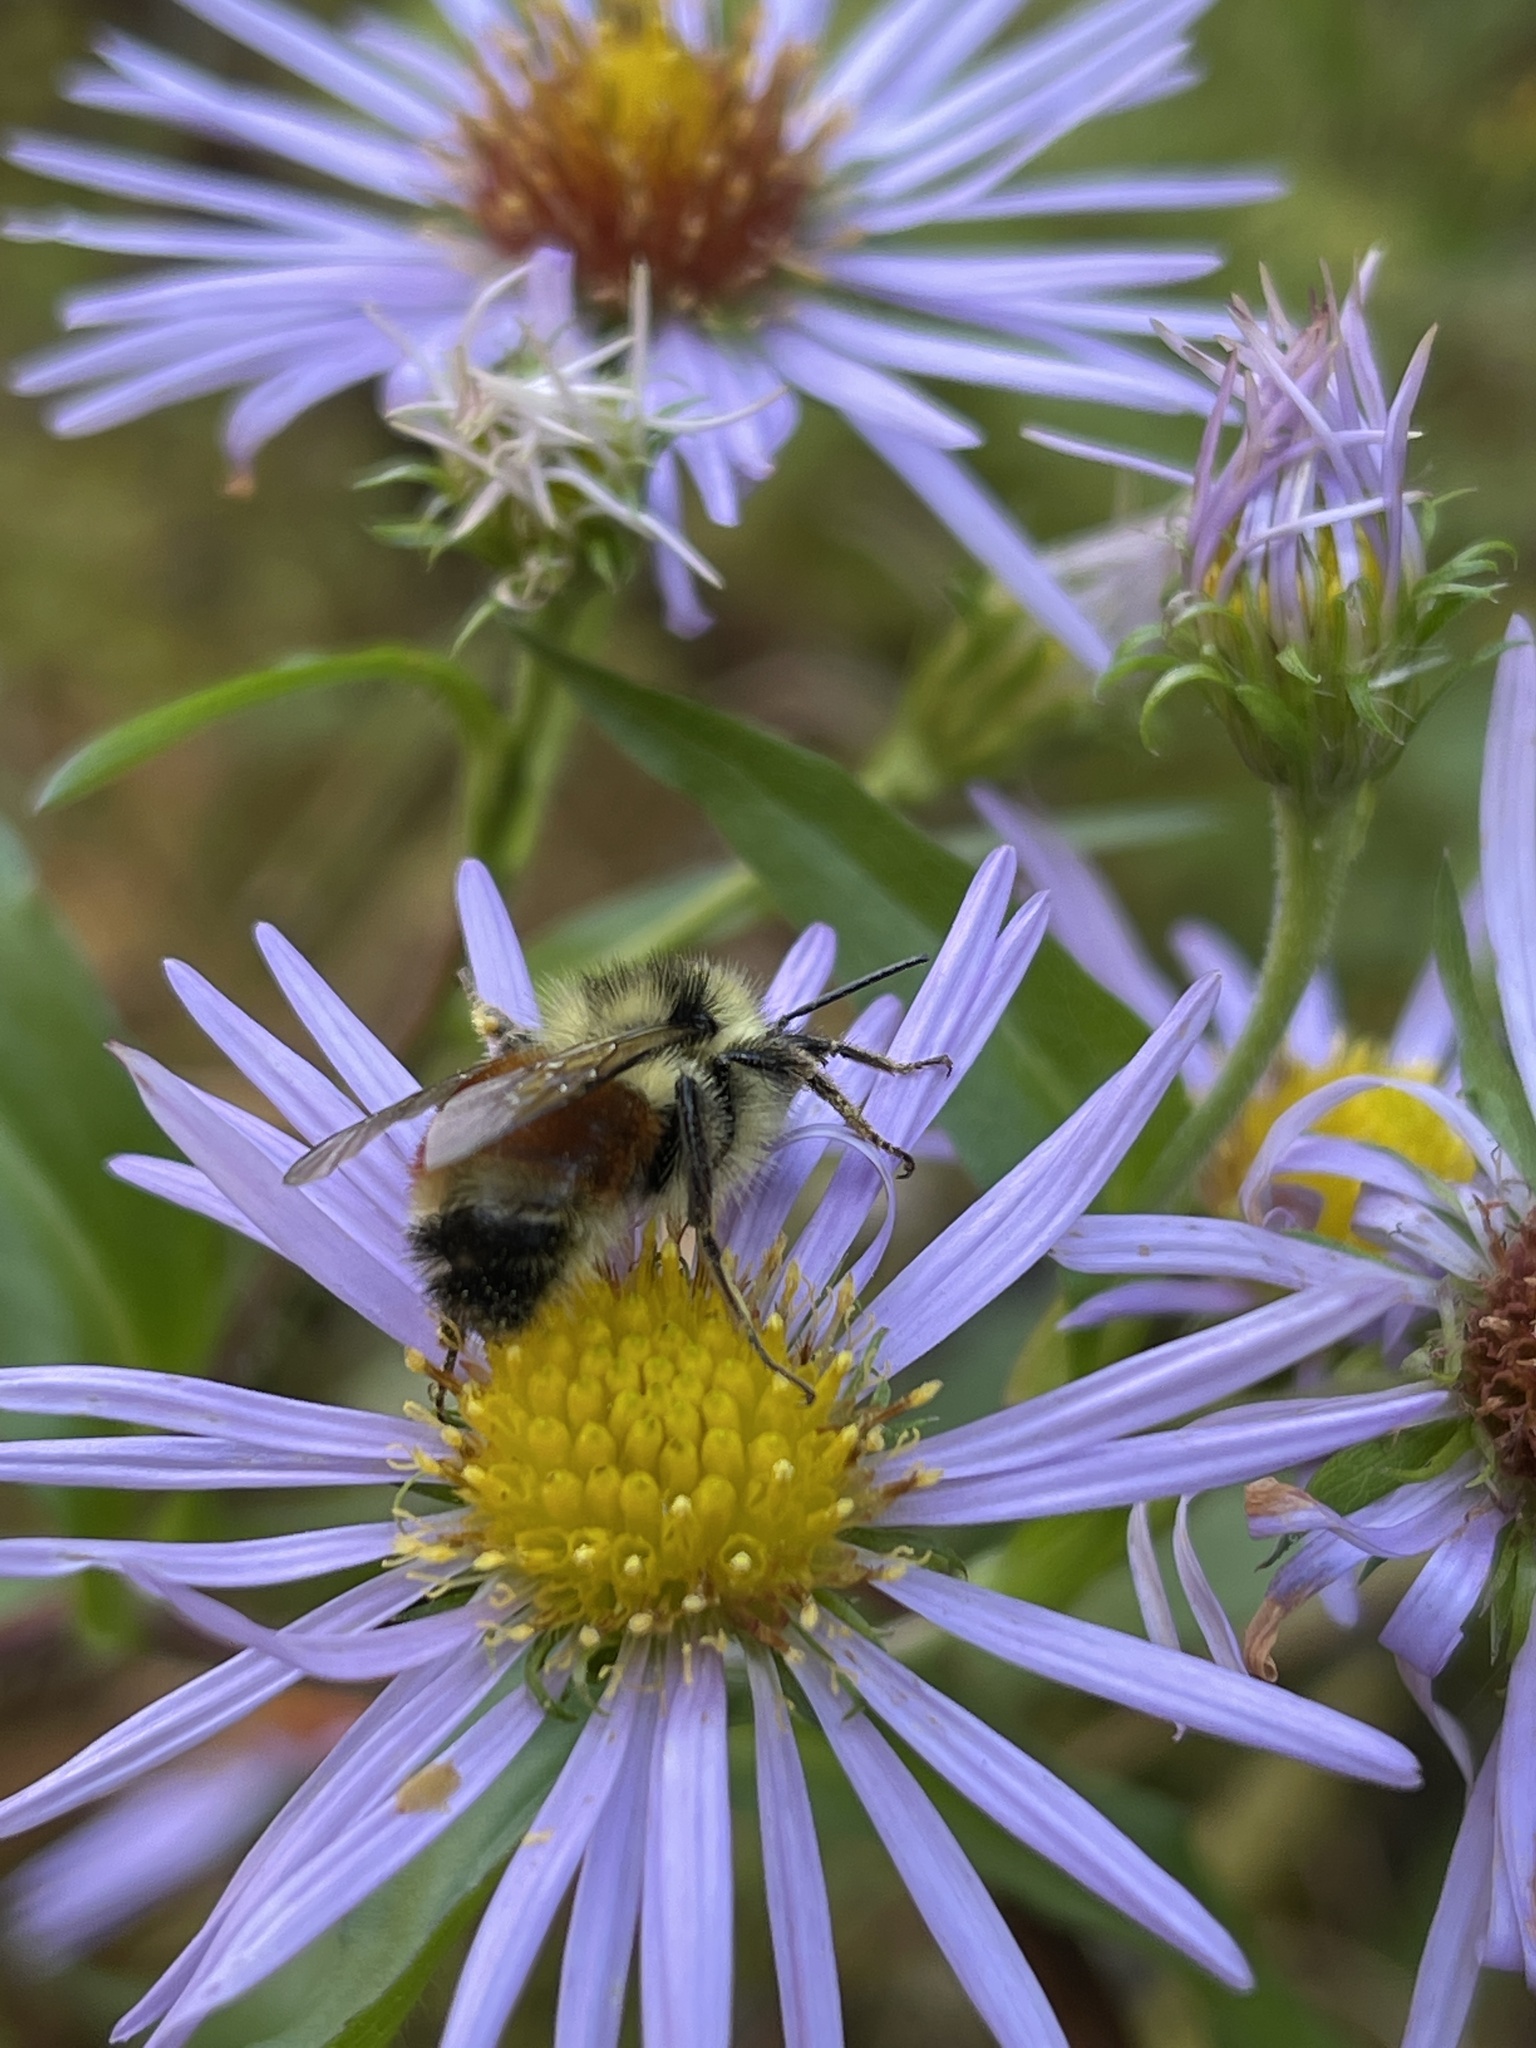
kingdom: Animalia
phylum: Arthropoda
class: Insecta
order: Hymenoptera
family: Apidae
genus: Bombus
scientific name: Bombus ternarius
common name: Tri-colored bumble bee
